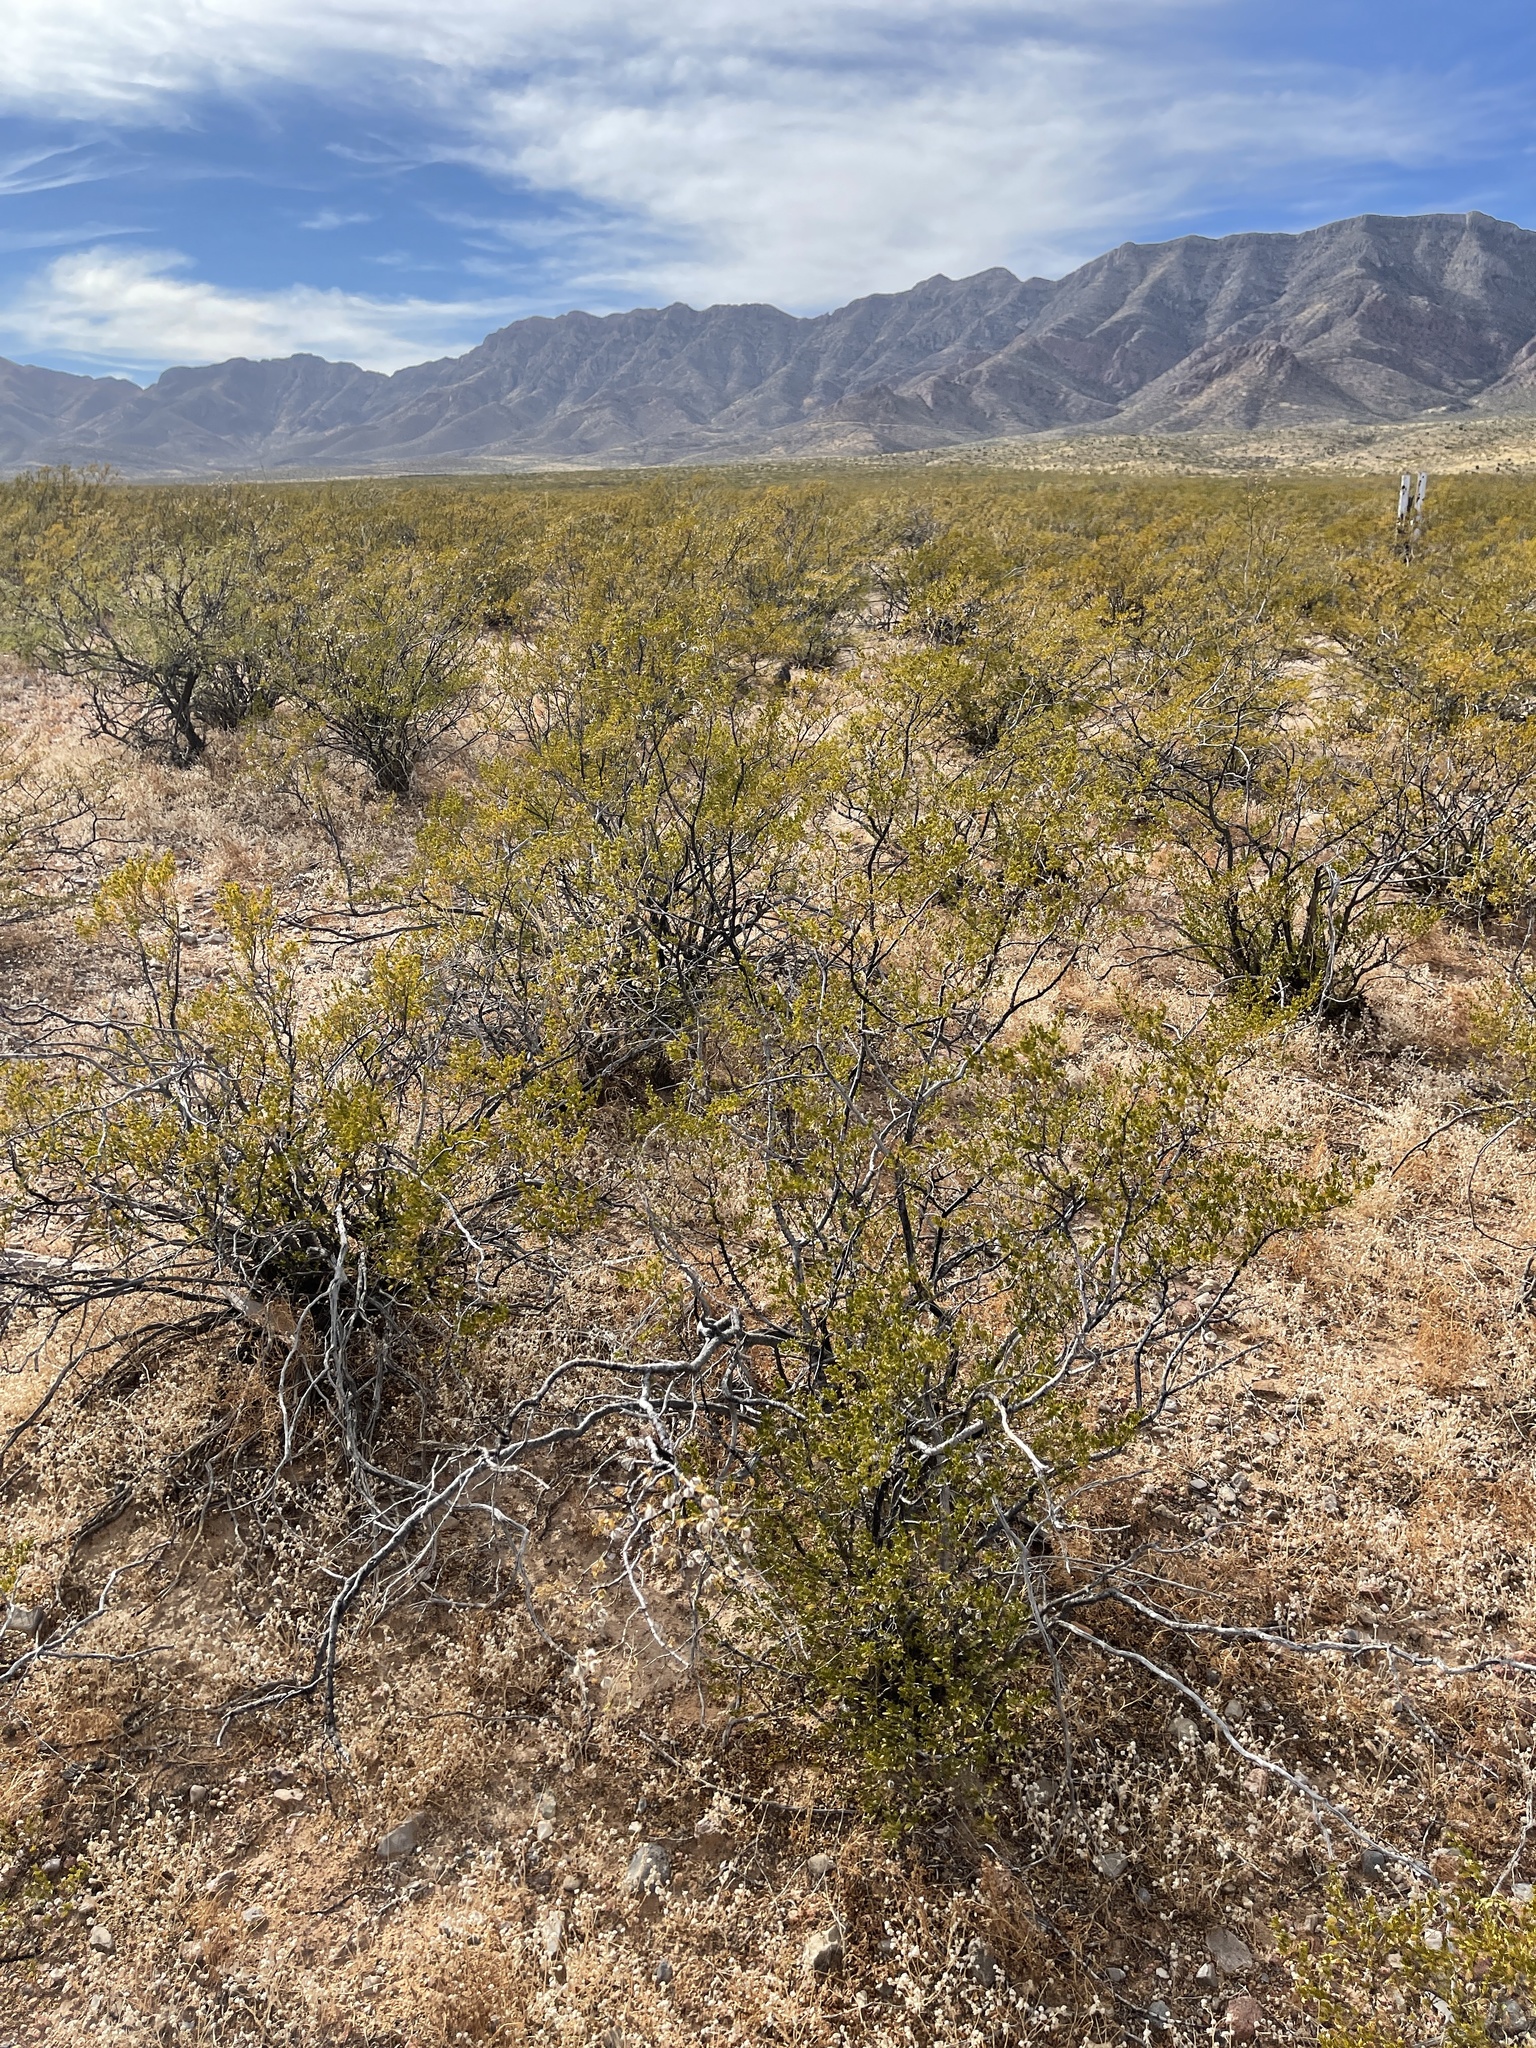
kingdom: Plantae
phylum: Tracheophyta
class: Magnoliopsida
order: Zygophyllales
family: Zygophyllaceae
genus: Larrea
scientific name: Larrea tridentata
